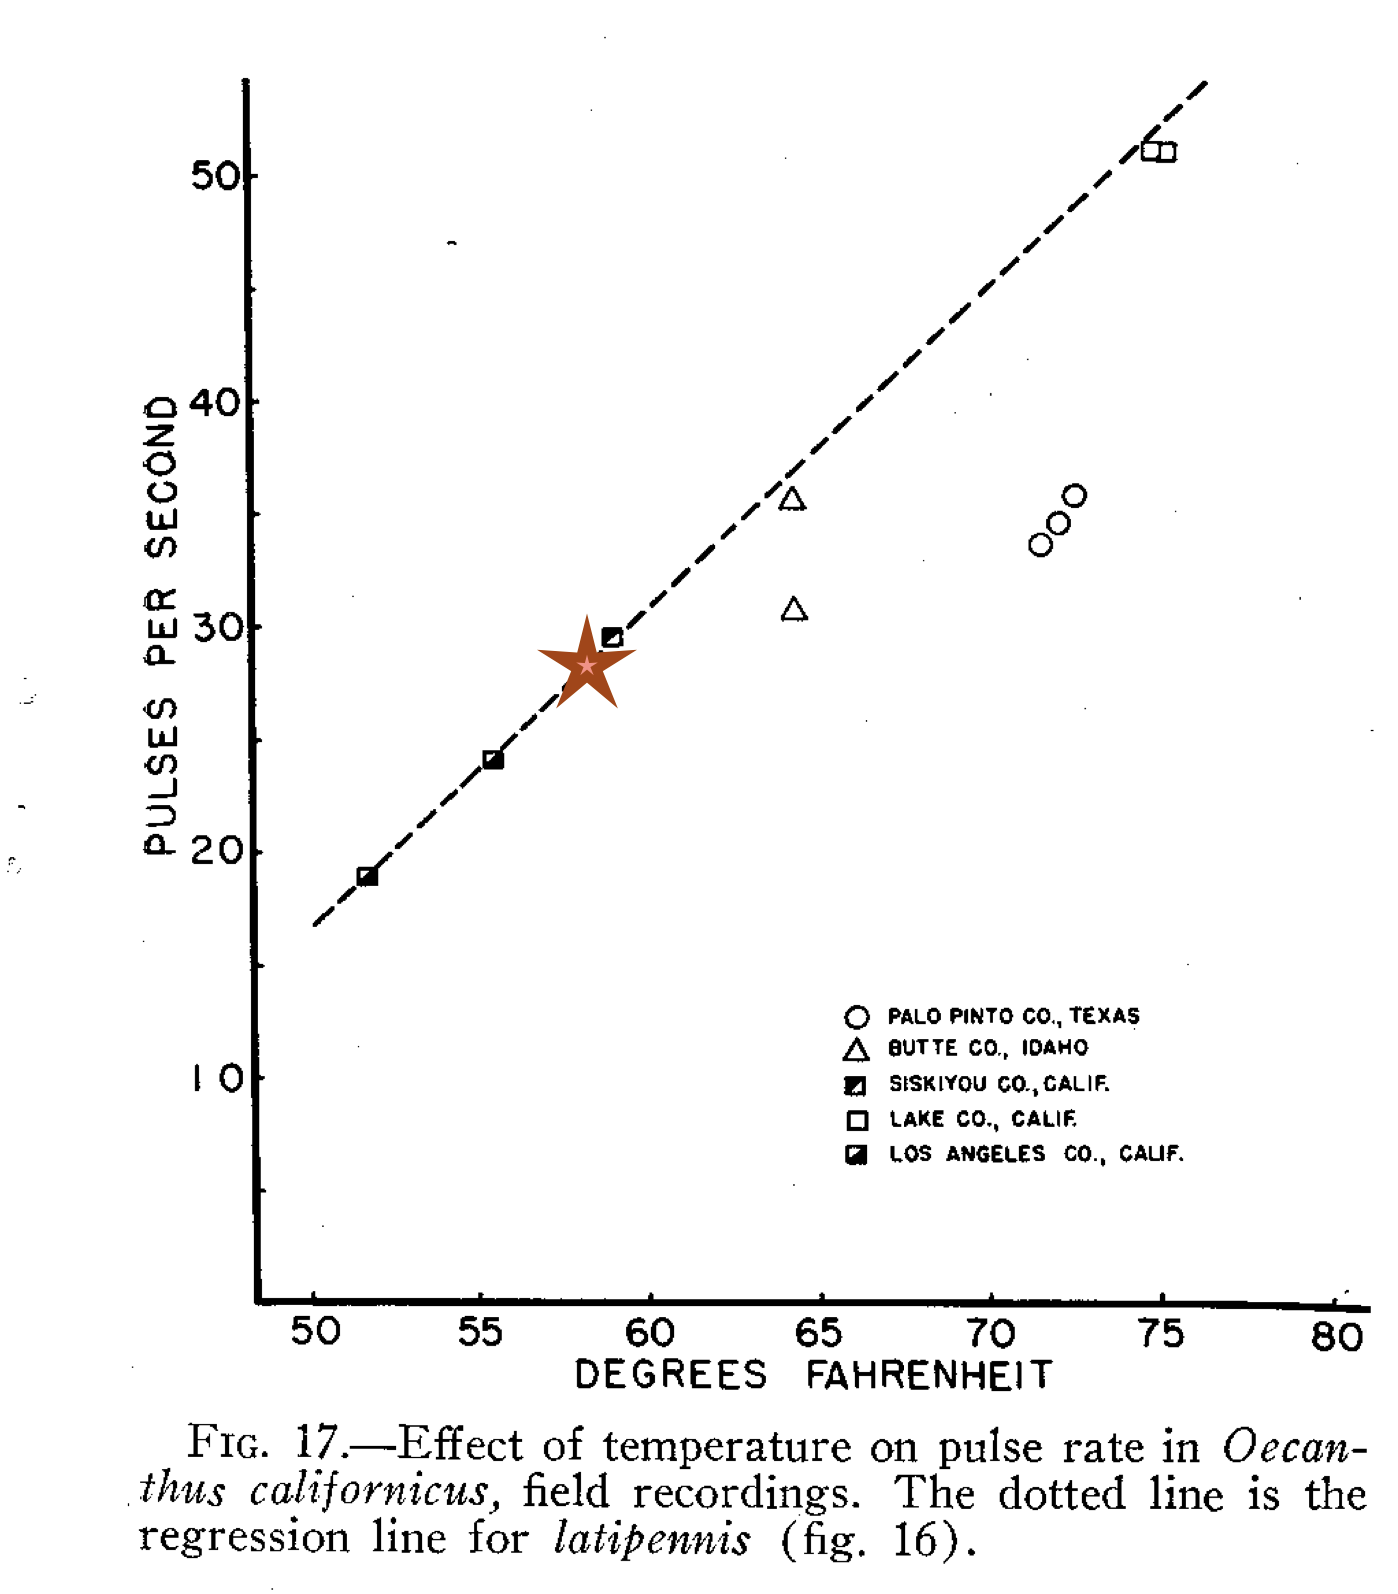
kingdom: Animalia
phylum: Arthropoda
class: Insecta
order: Orthoptera
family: Gryllidae
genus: Oecanthus
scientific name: Oecanthus californicus
